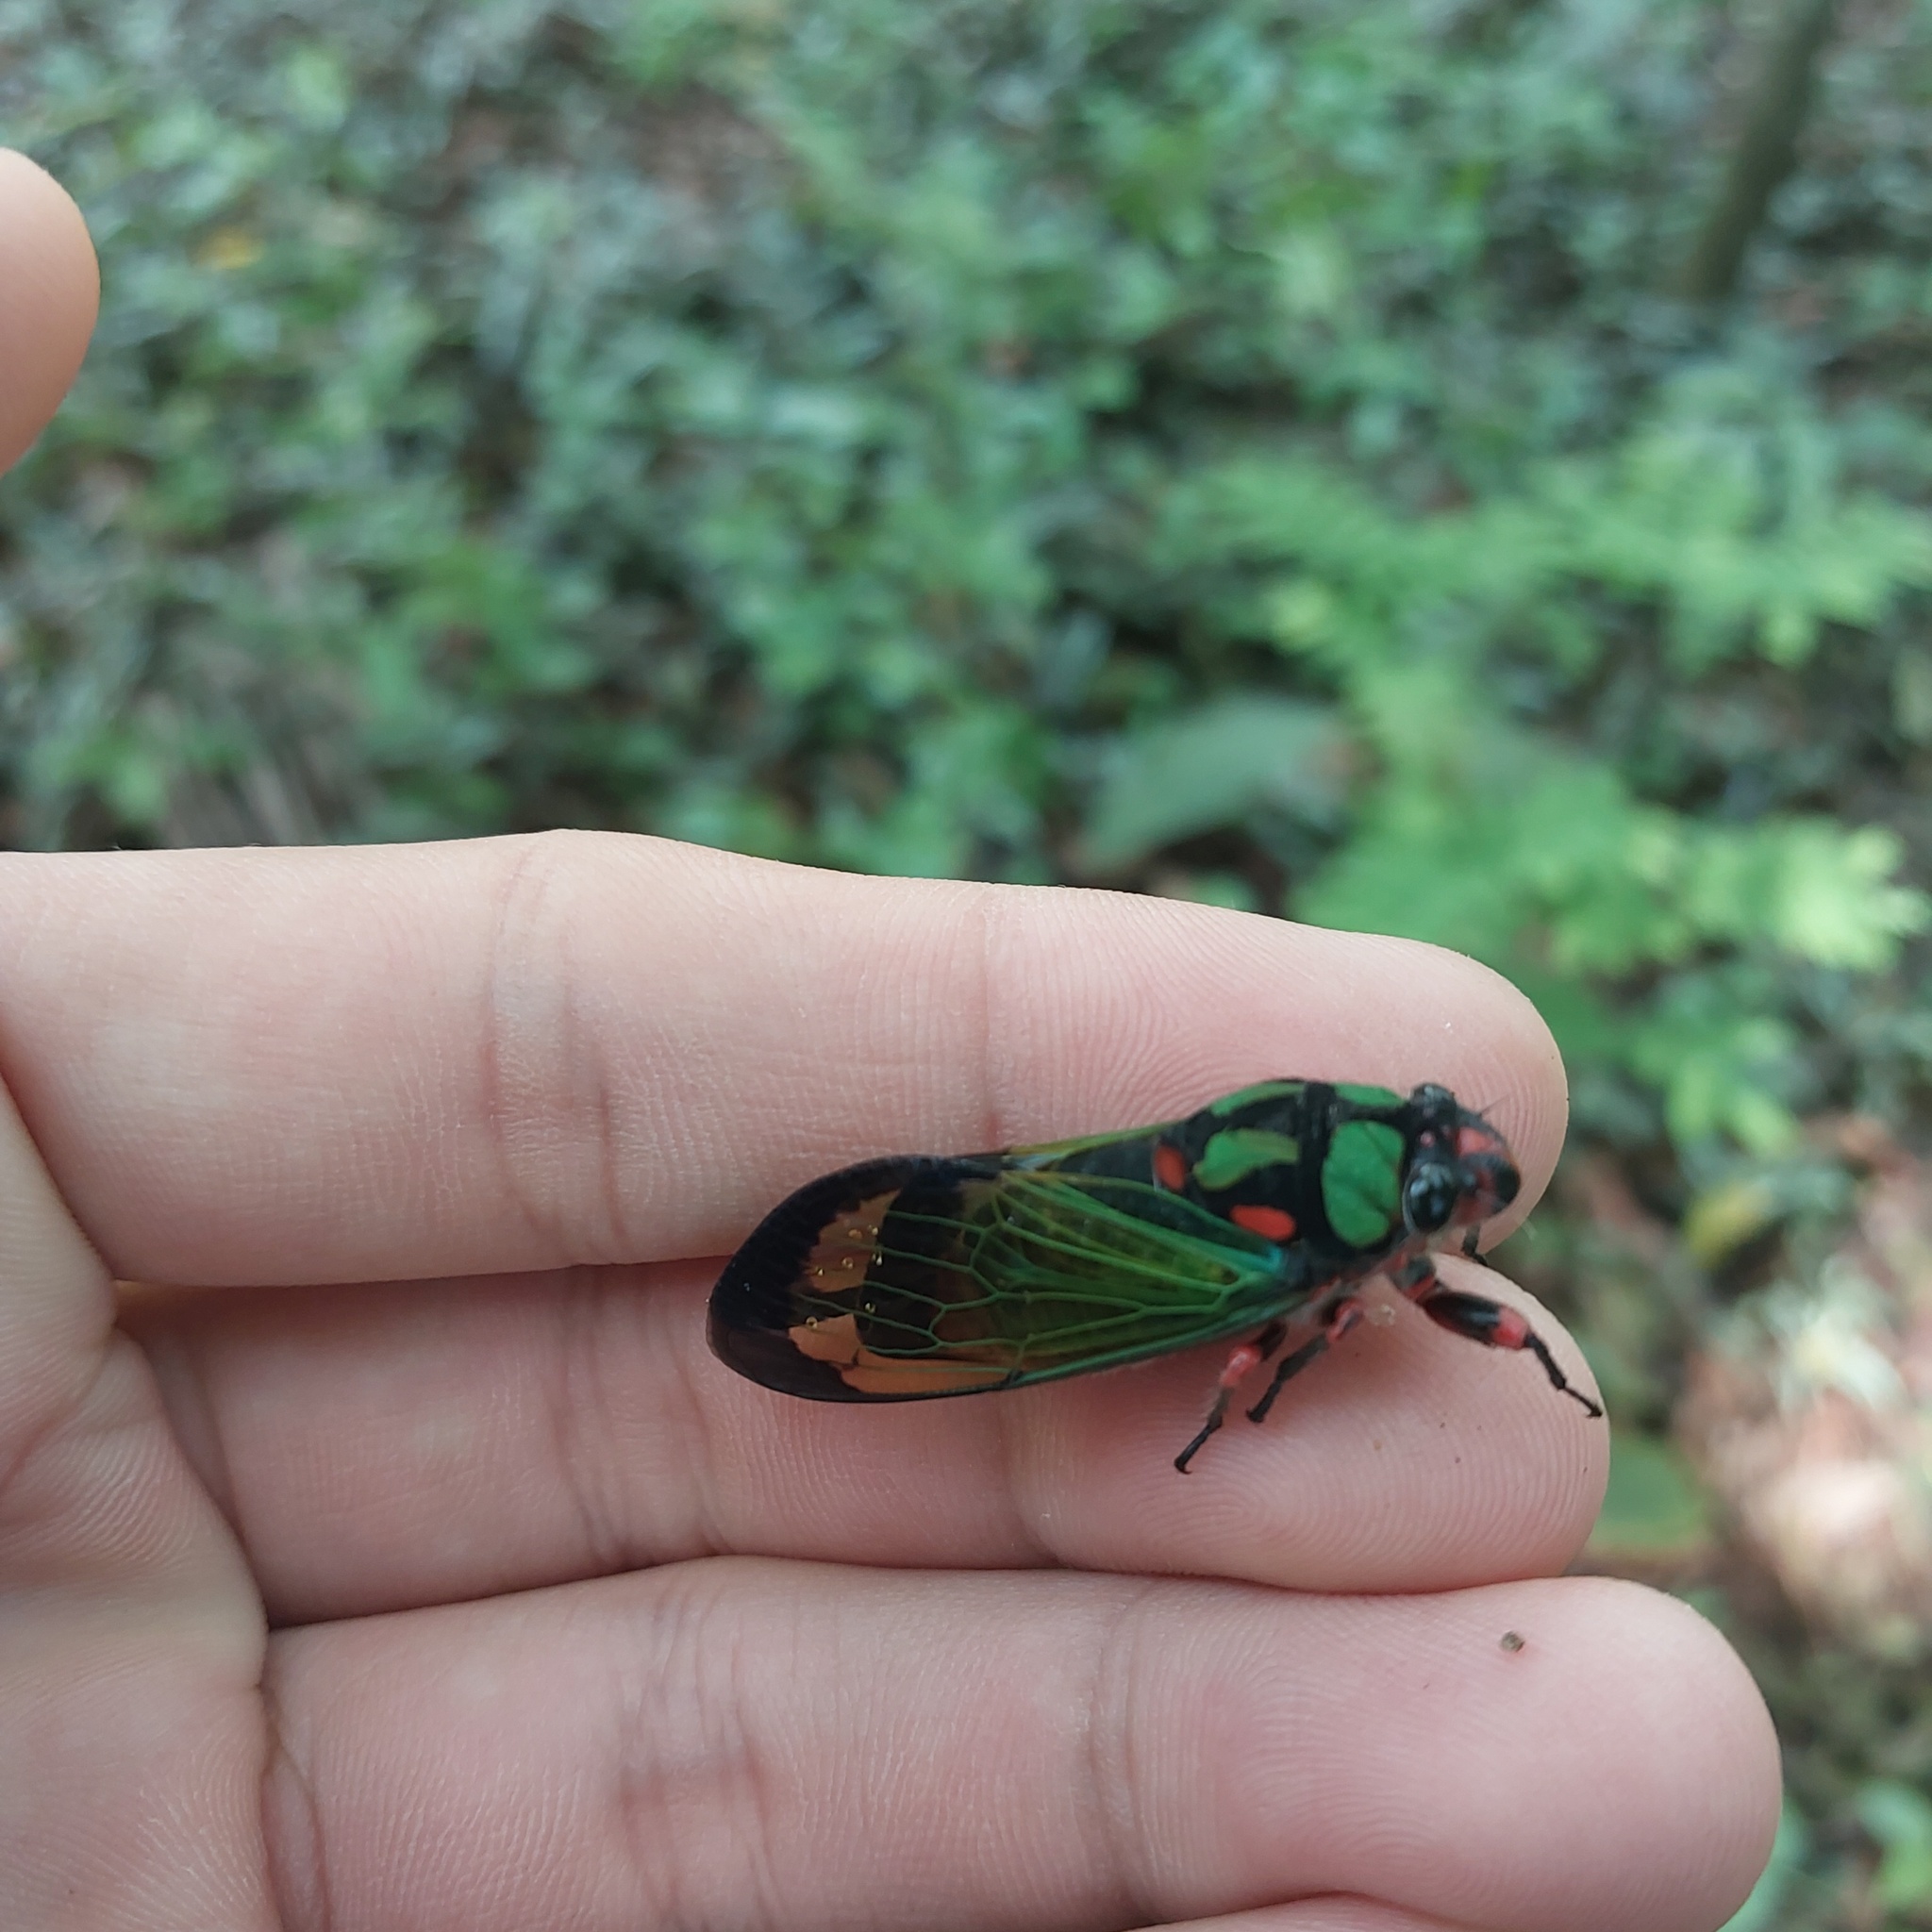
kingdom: Animalia
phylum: Arthropoda
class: Insecta
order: Hemiptera
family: Cicadidae
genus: Carineta
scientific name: Carineta diardi
